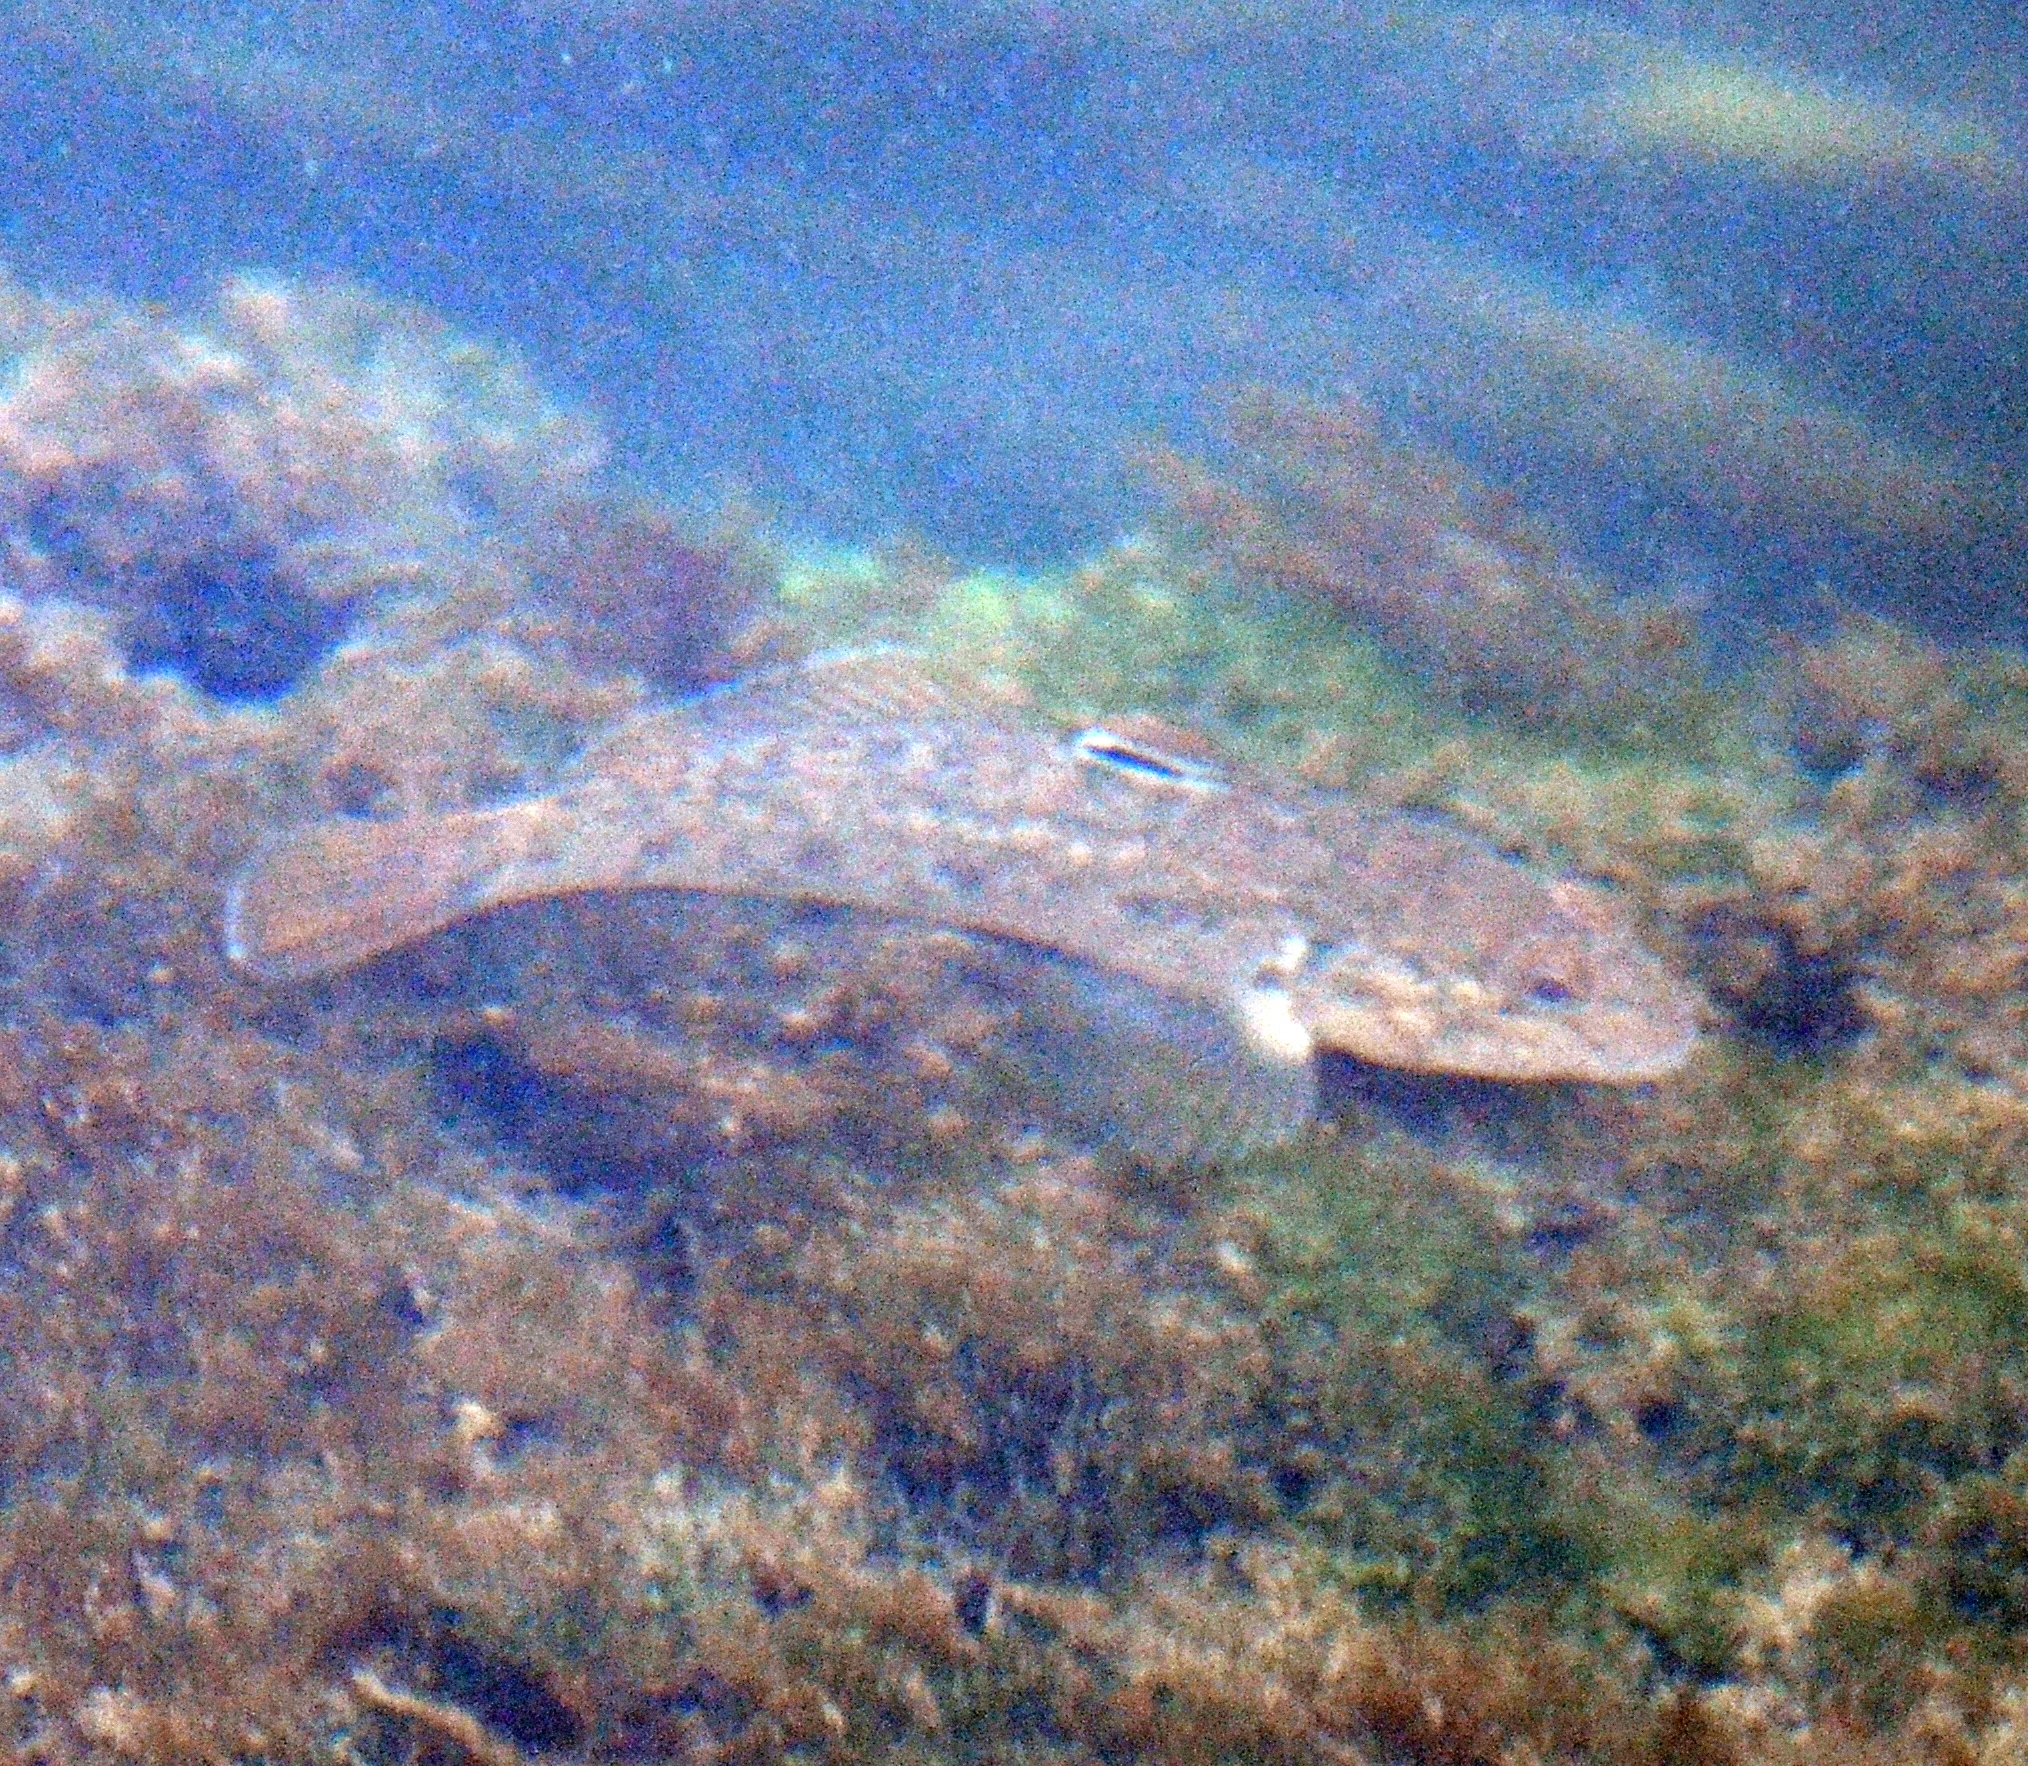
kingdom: Animalia
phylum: Chordata
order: Perciformes
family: Gobiidae
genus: Neogobius
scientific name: Neogobius melanostomus
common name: Round goby
